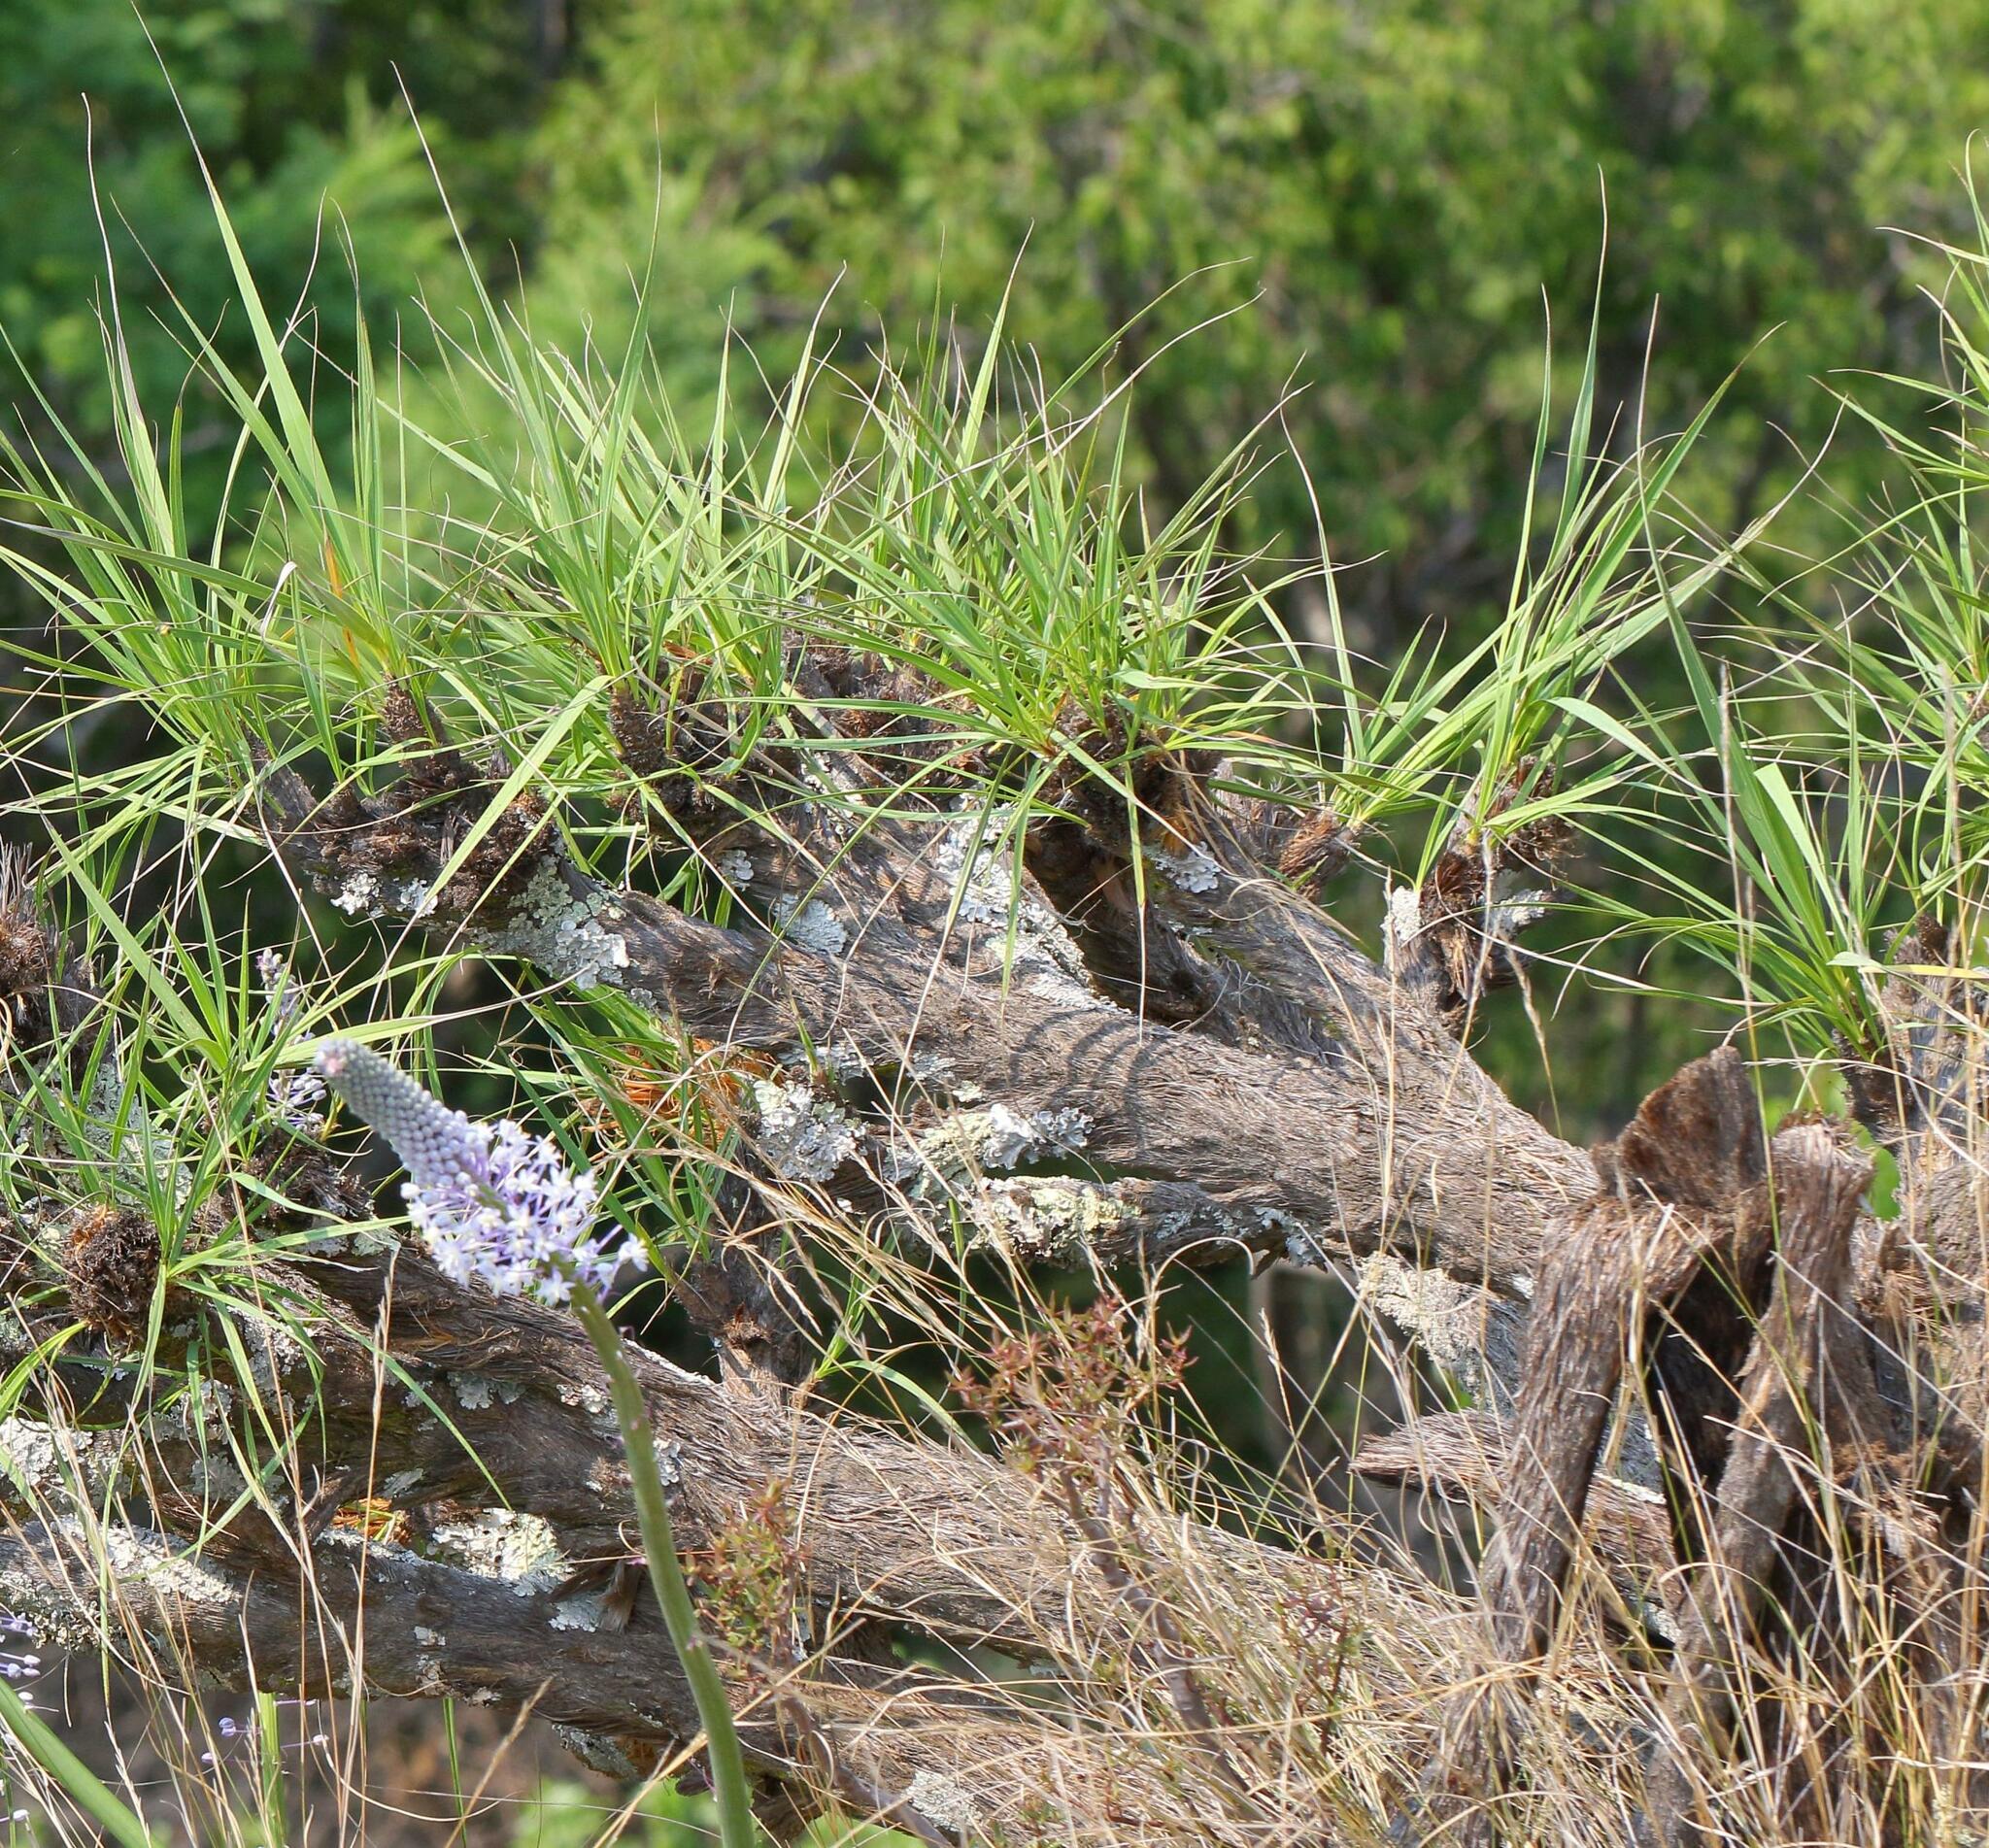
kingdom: Plantae
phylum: Tracheophyta
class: Liliopsida
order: Pandanales
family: Velloziaceae
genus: Xerophyta
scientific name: Xerophyta retinervis
